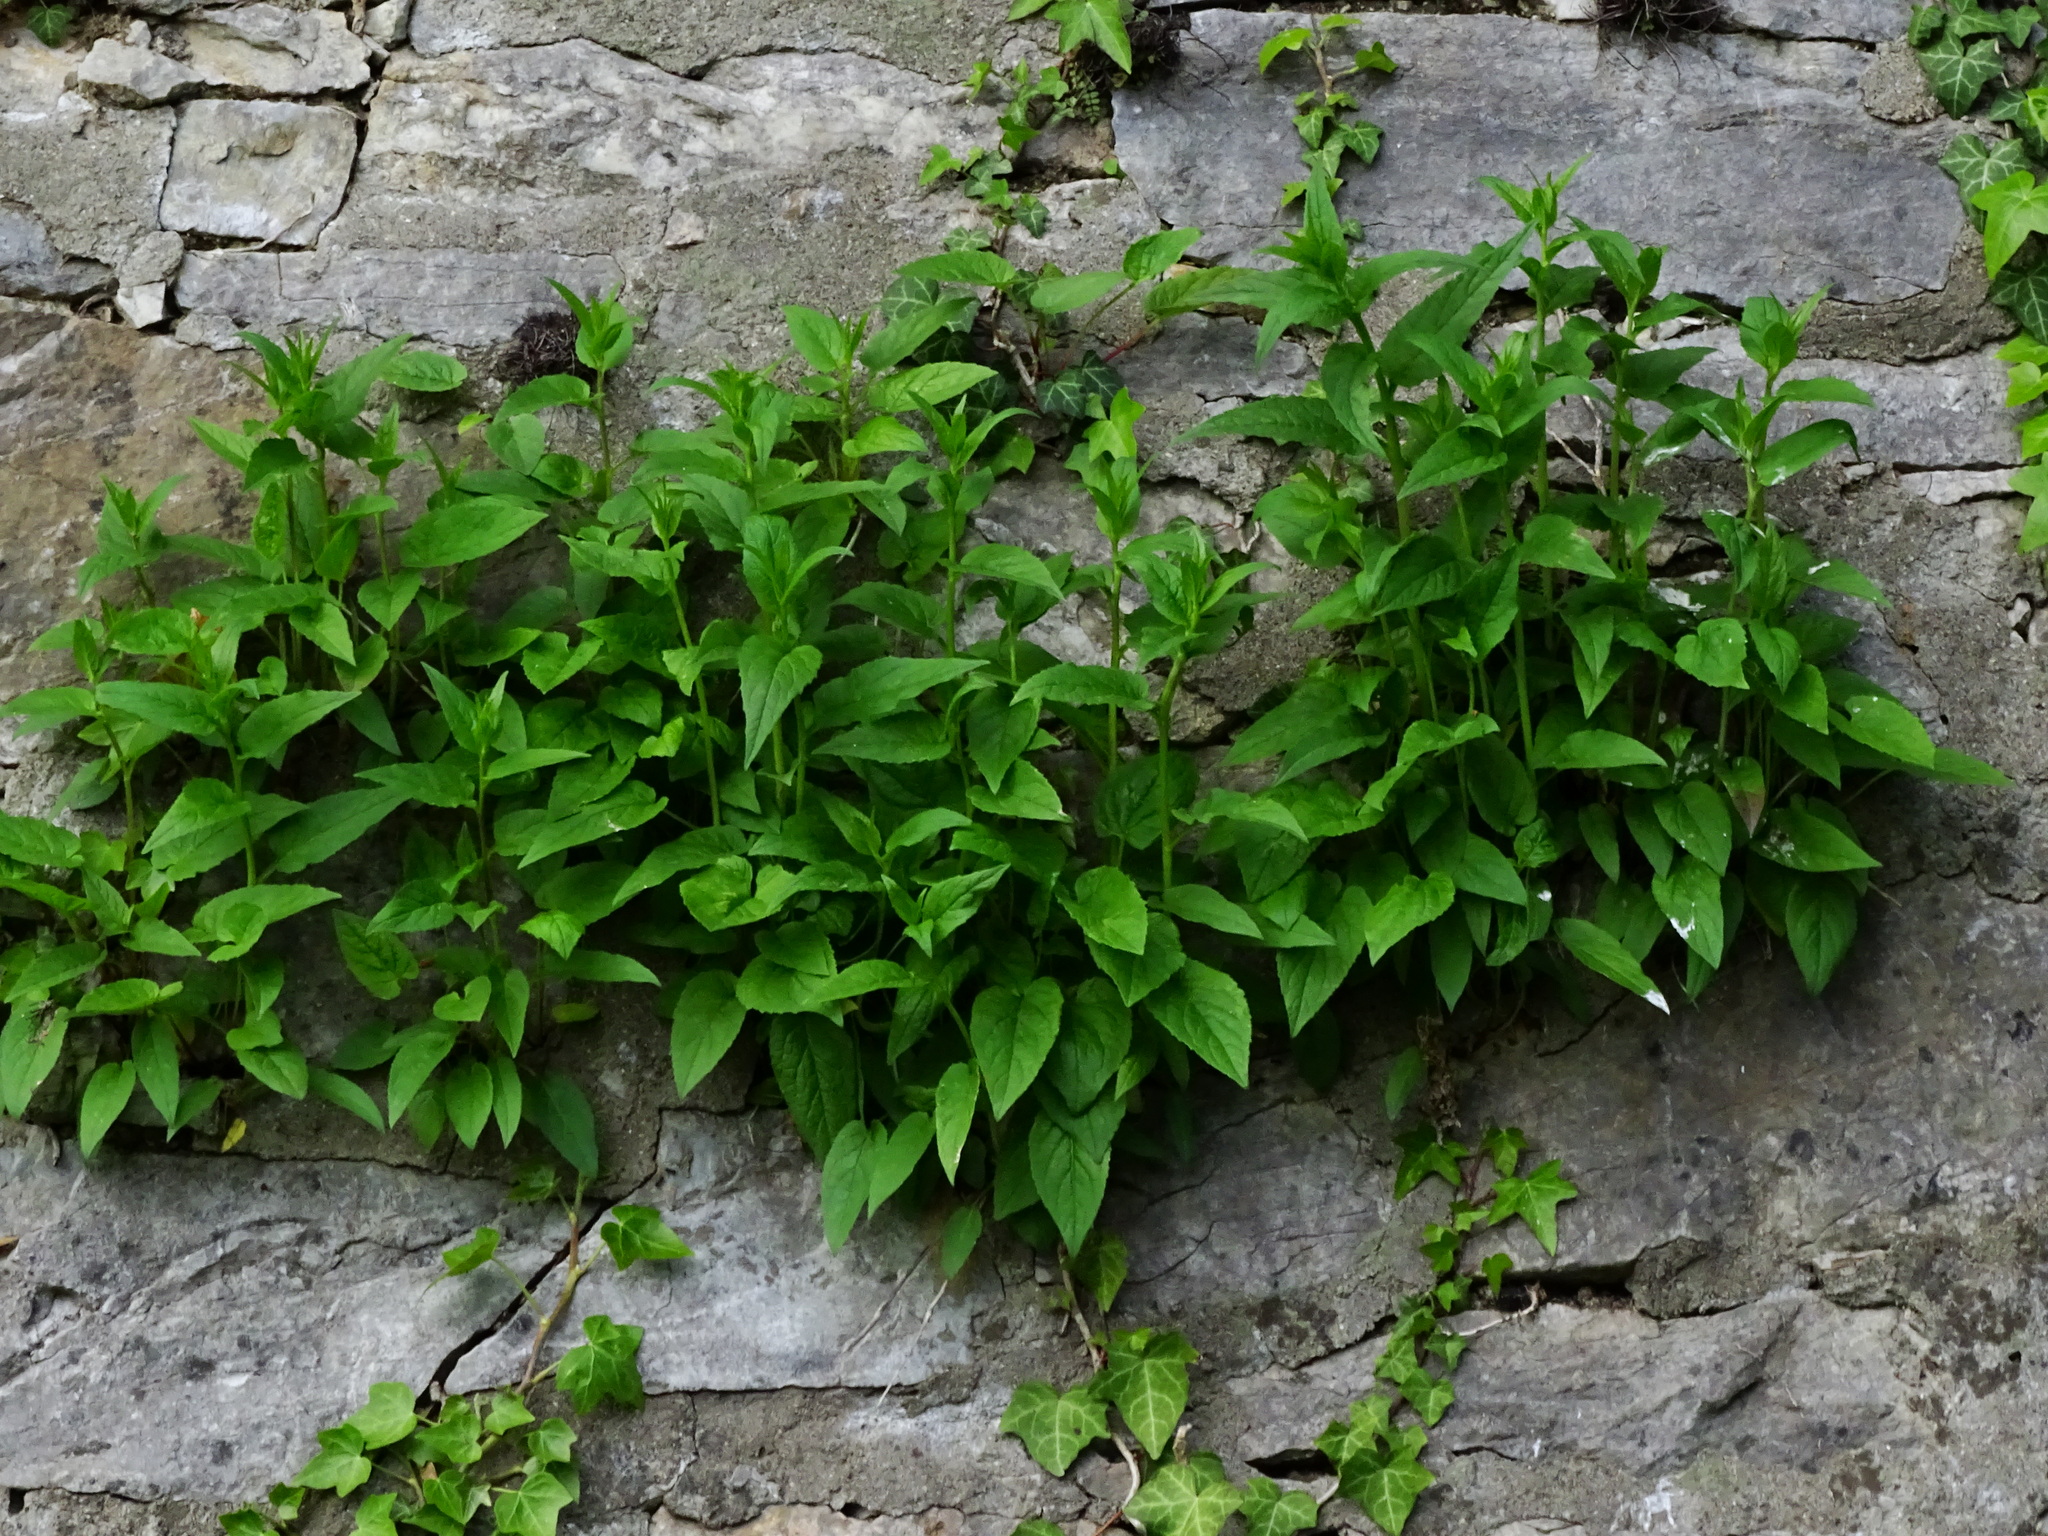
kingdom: Plantae
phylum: Tracheophyta
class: Magnoliopsida
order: Asterales
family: Campanulaceae
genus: Campanula
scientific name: Campanula rapunculoides
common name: Creeping bellflower
